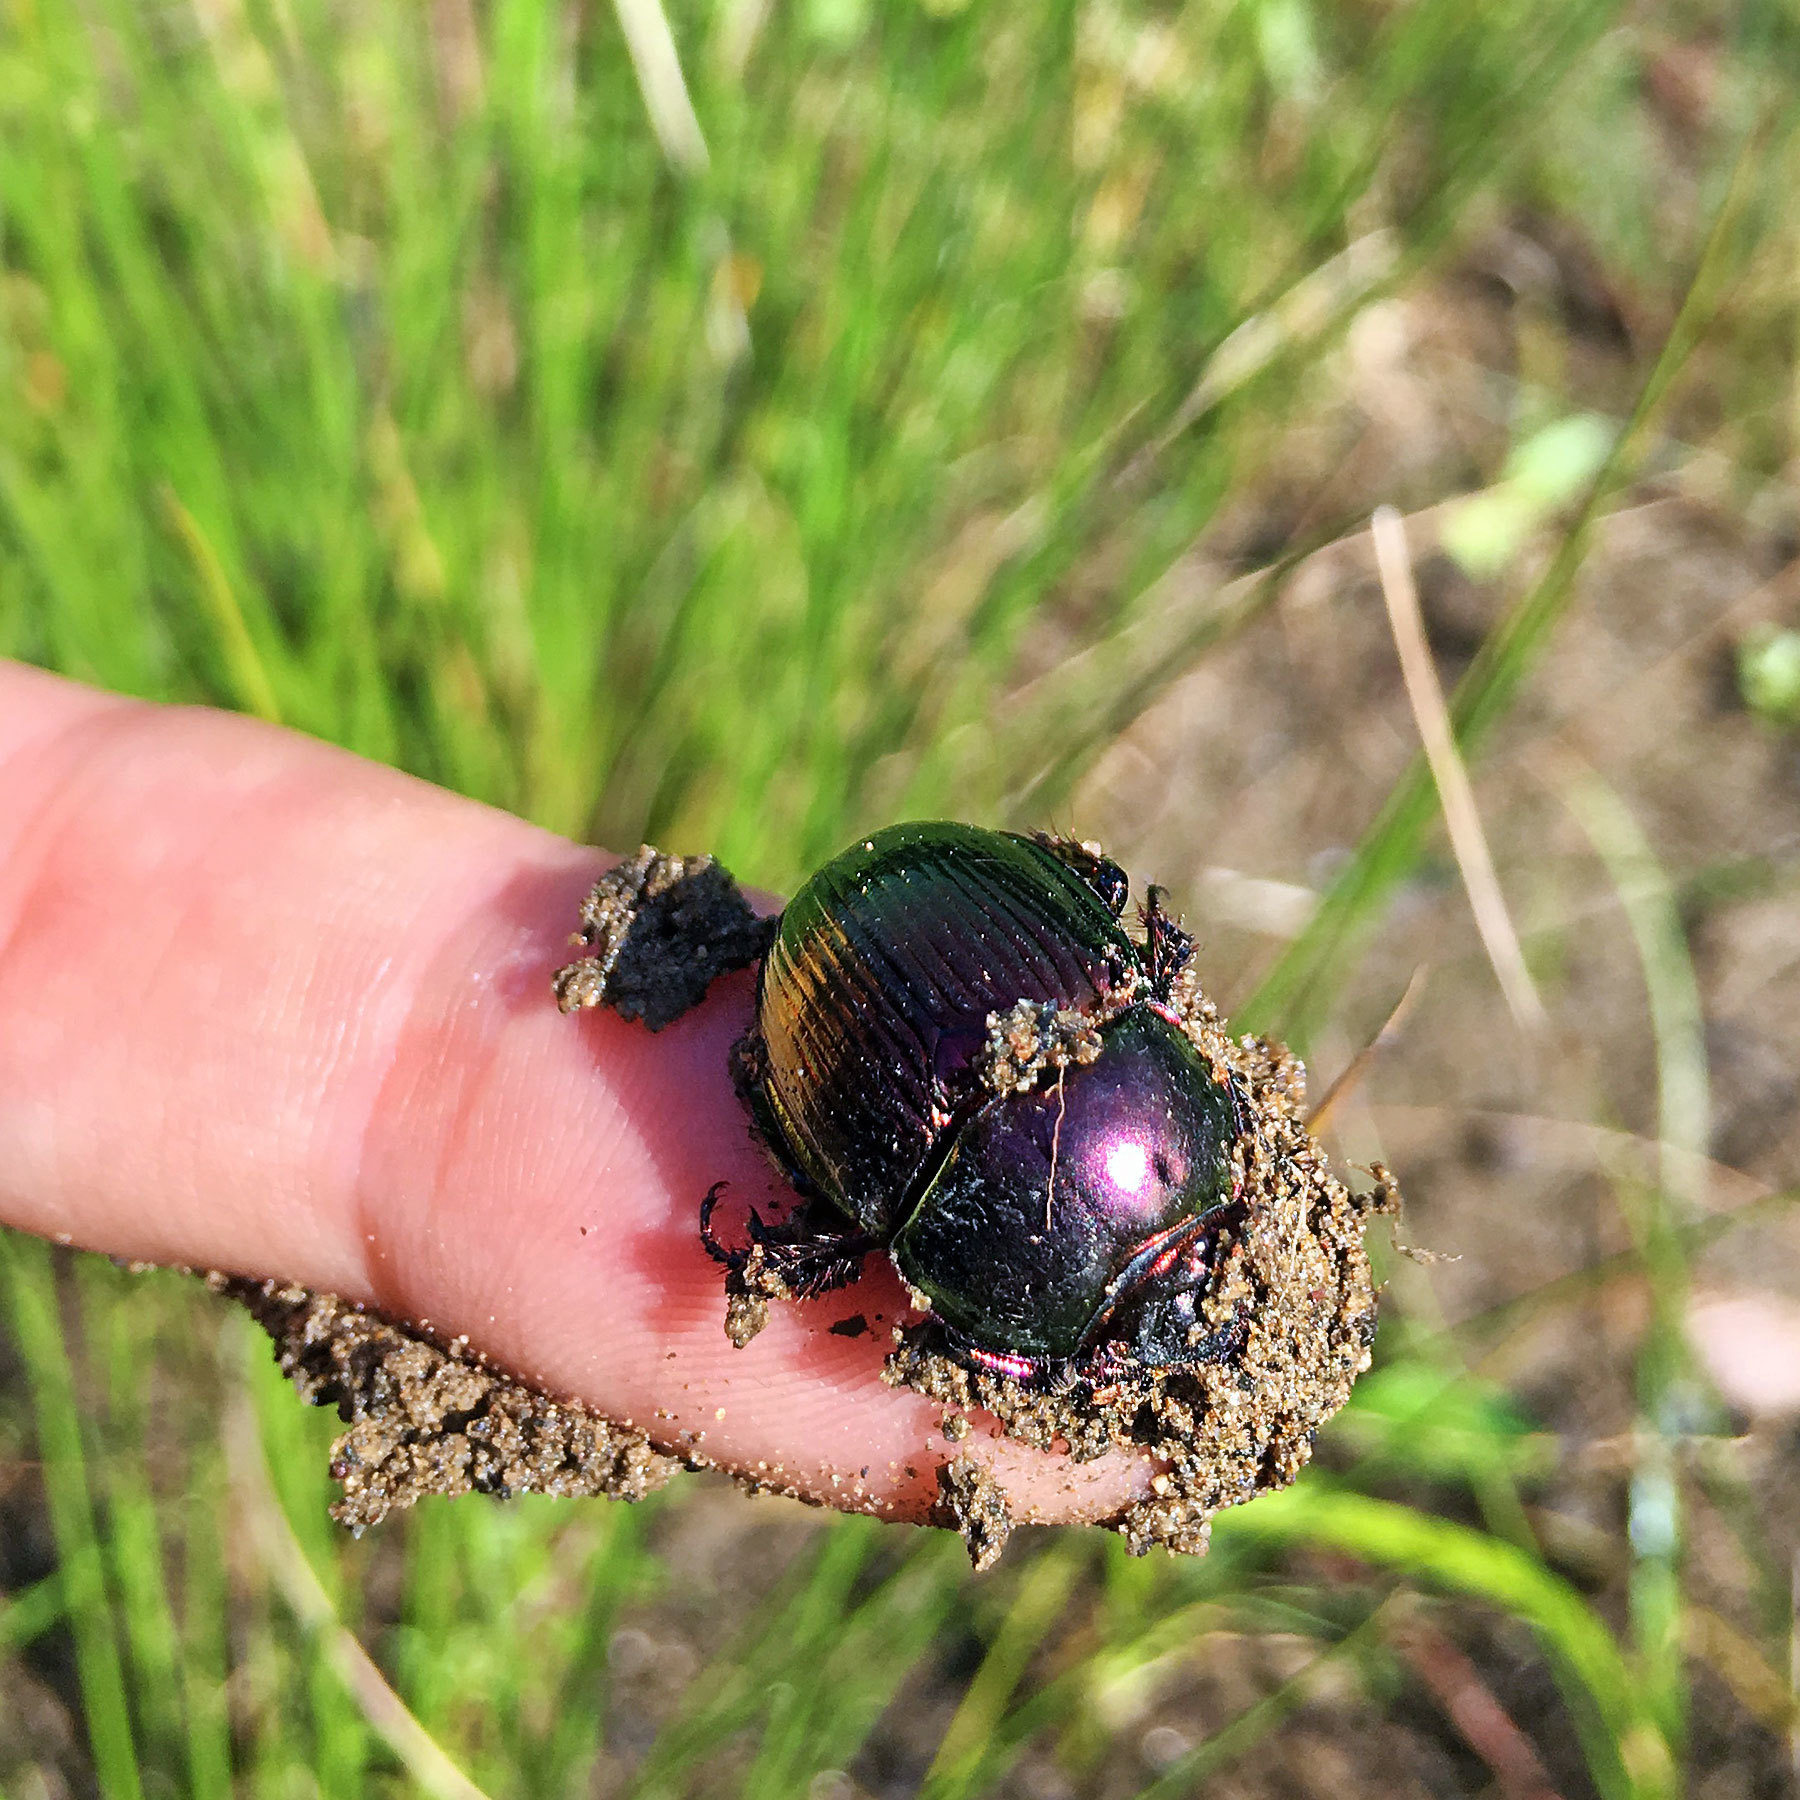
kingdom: Animalia
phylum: Arthropoda
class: Insecta
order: Coleoptera
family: Geotrupidae
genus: Phelotrupes
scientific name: Phelotrupes auratus
